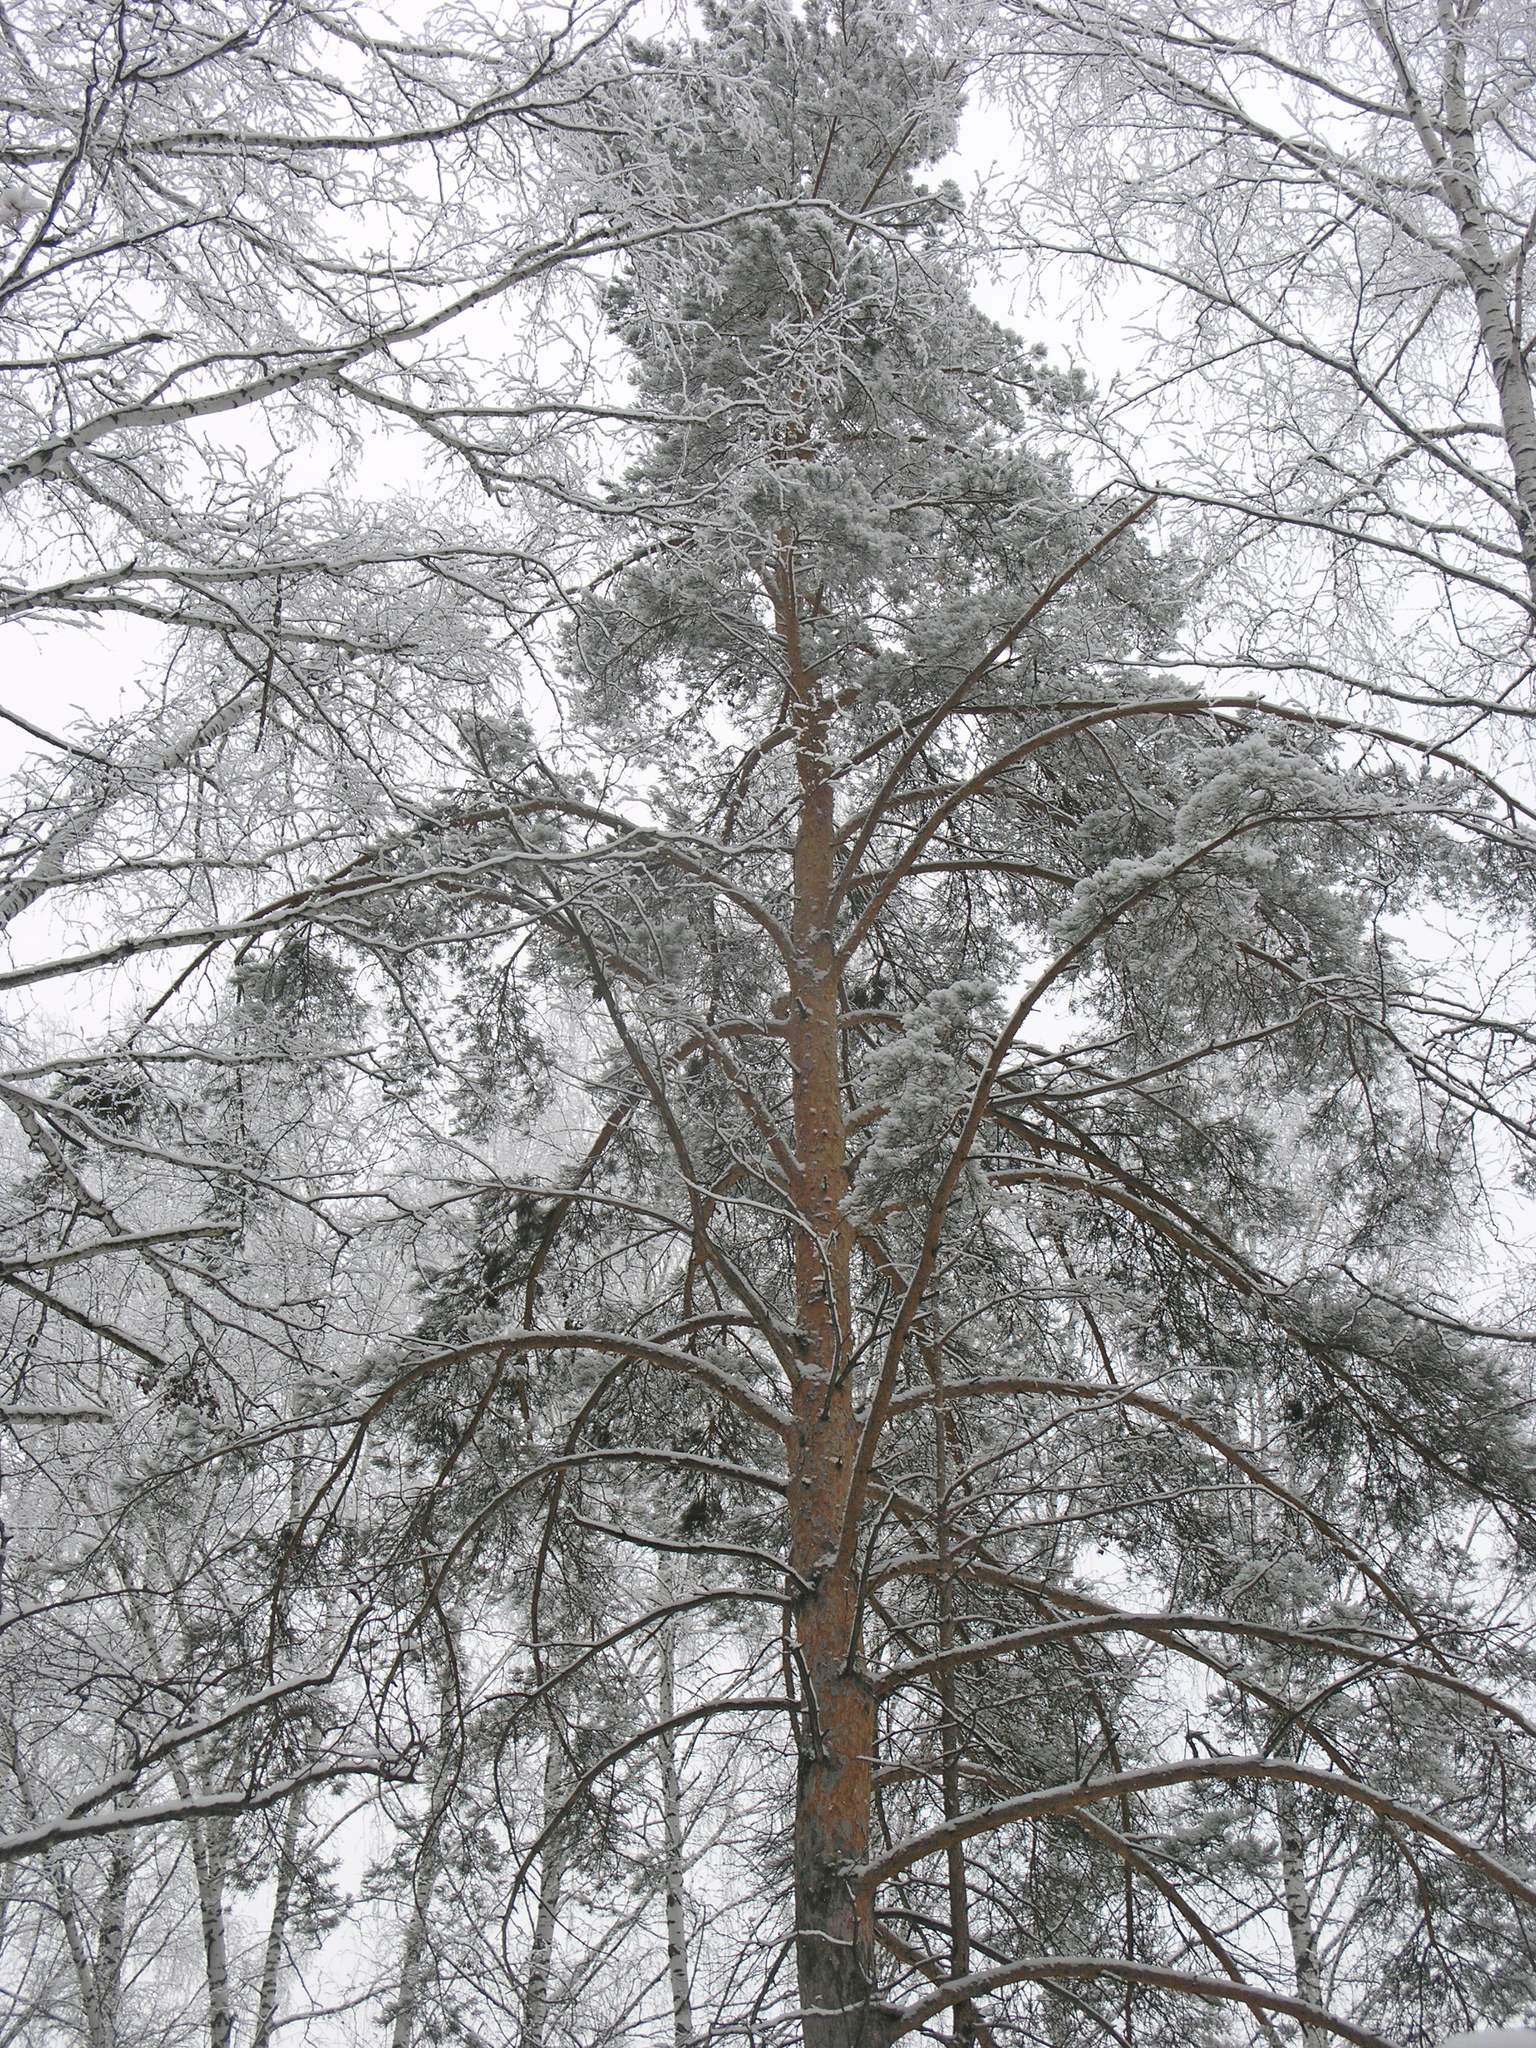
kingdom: Plantae
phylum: Tracheophyta
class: Pinopsida
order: Pinales
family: Pinaceae
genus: Pinus
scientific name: Pinus sylvestris
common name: Scots pine
